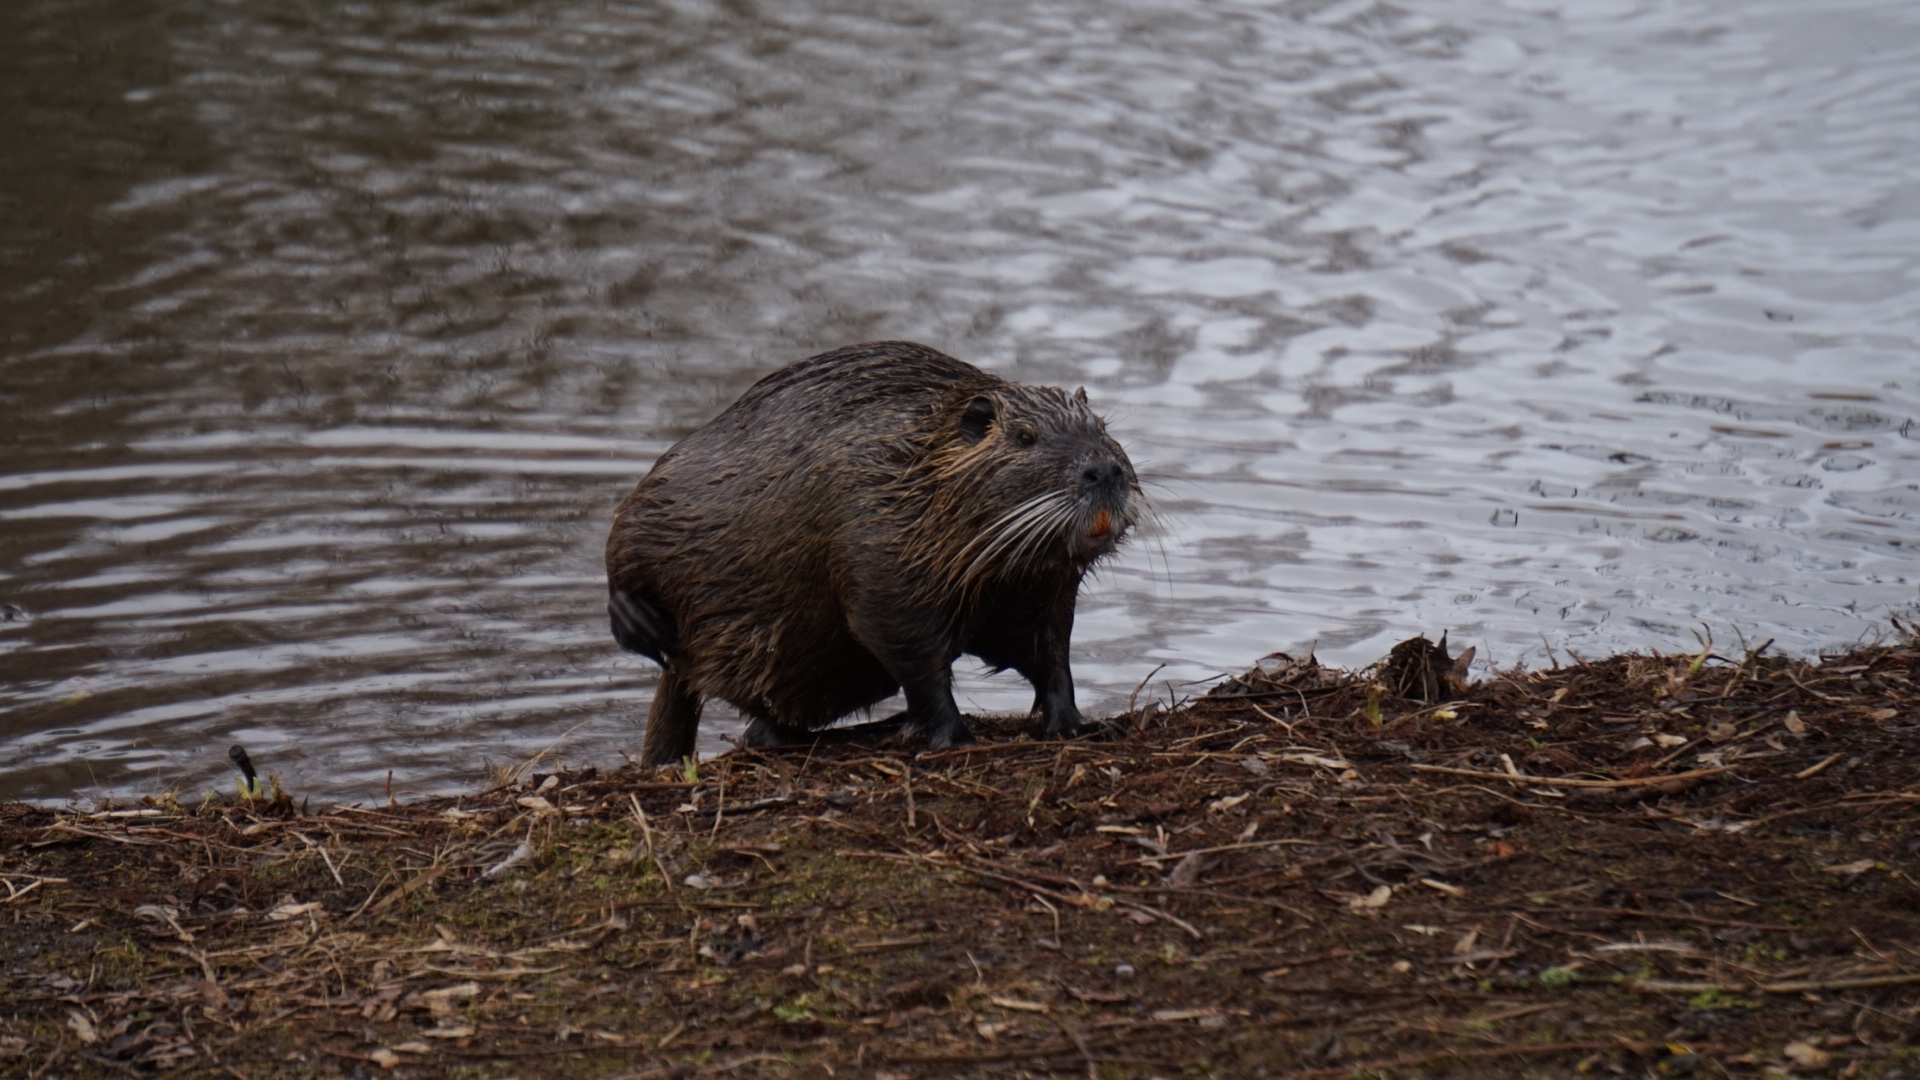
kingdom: Animalia
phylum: Chordata
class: Mammalia
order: Rodentia
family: Myocastoridae
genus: Myocastor
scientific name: Myocastor coypus
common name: Coypu
